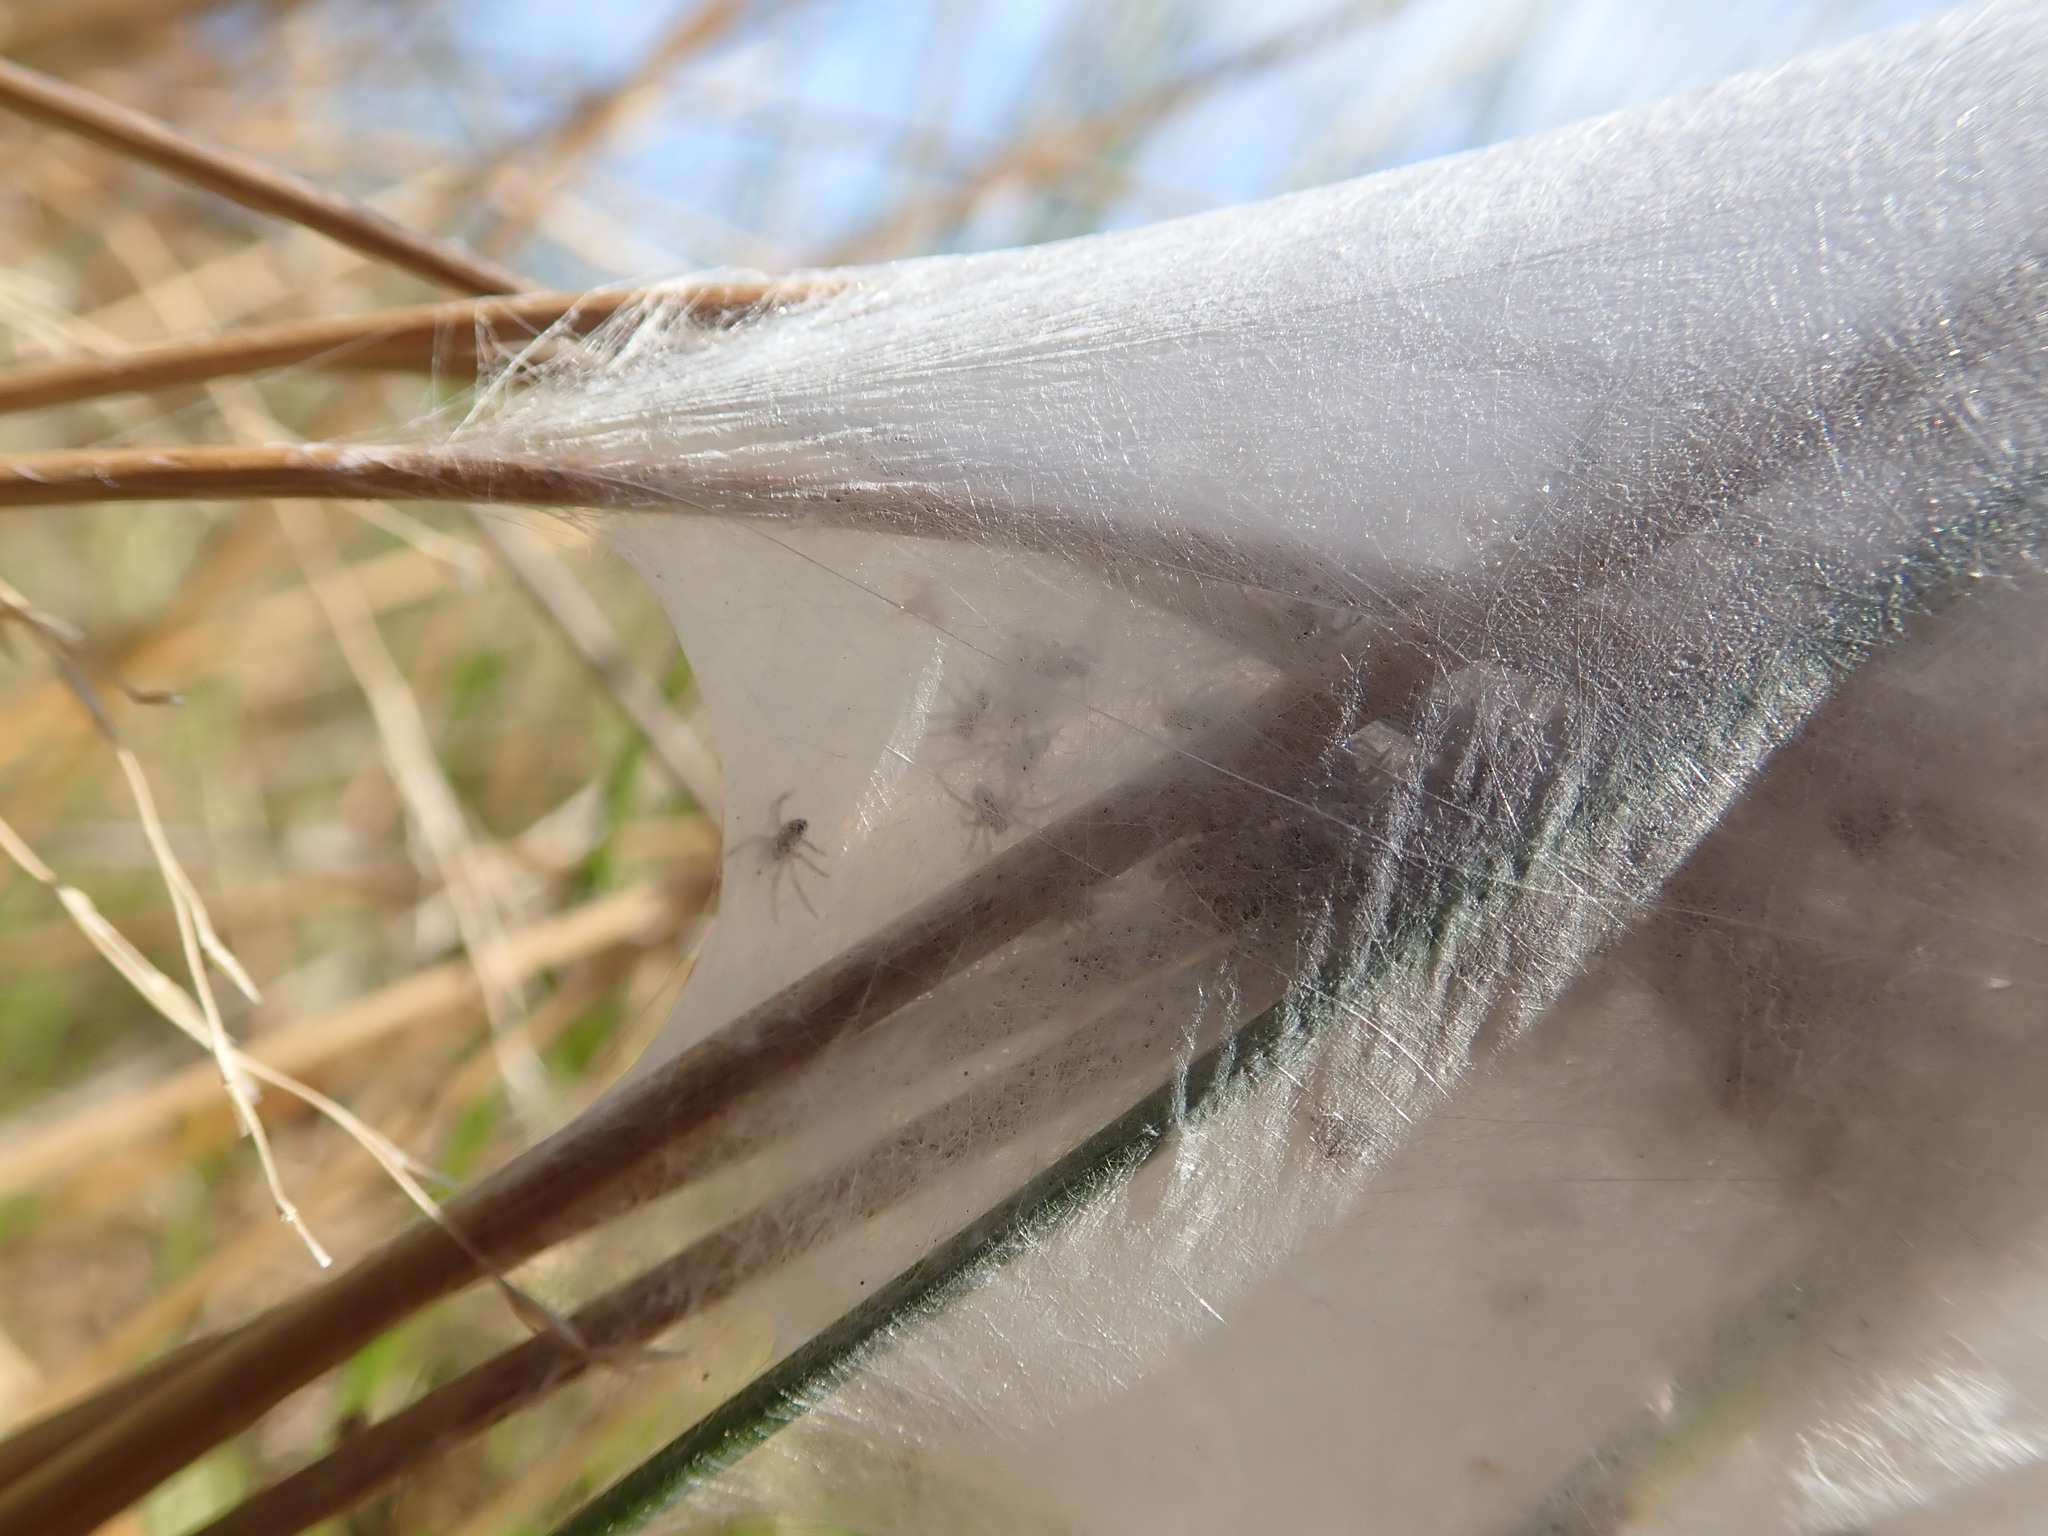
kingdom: Animalia
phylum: Arthropoda
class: Arachnida
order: Araneae
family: Pisauridae
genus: Dolomedes
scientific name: Dolomedes minor
